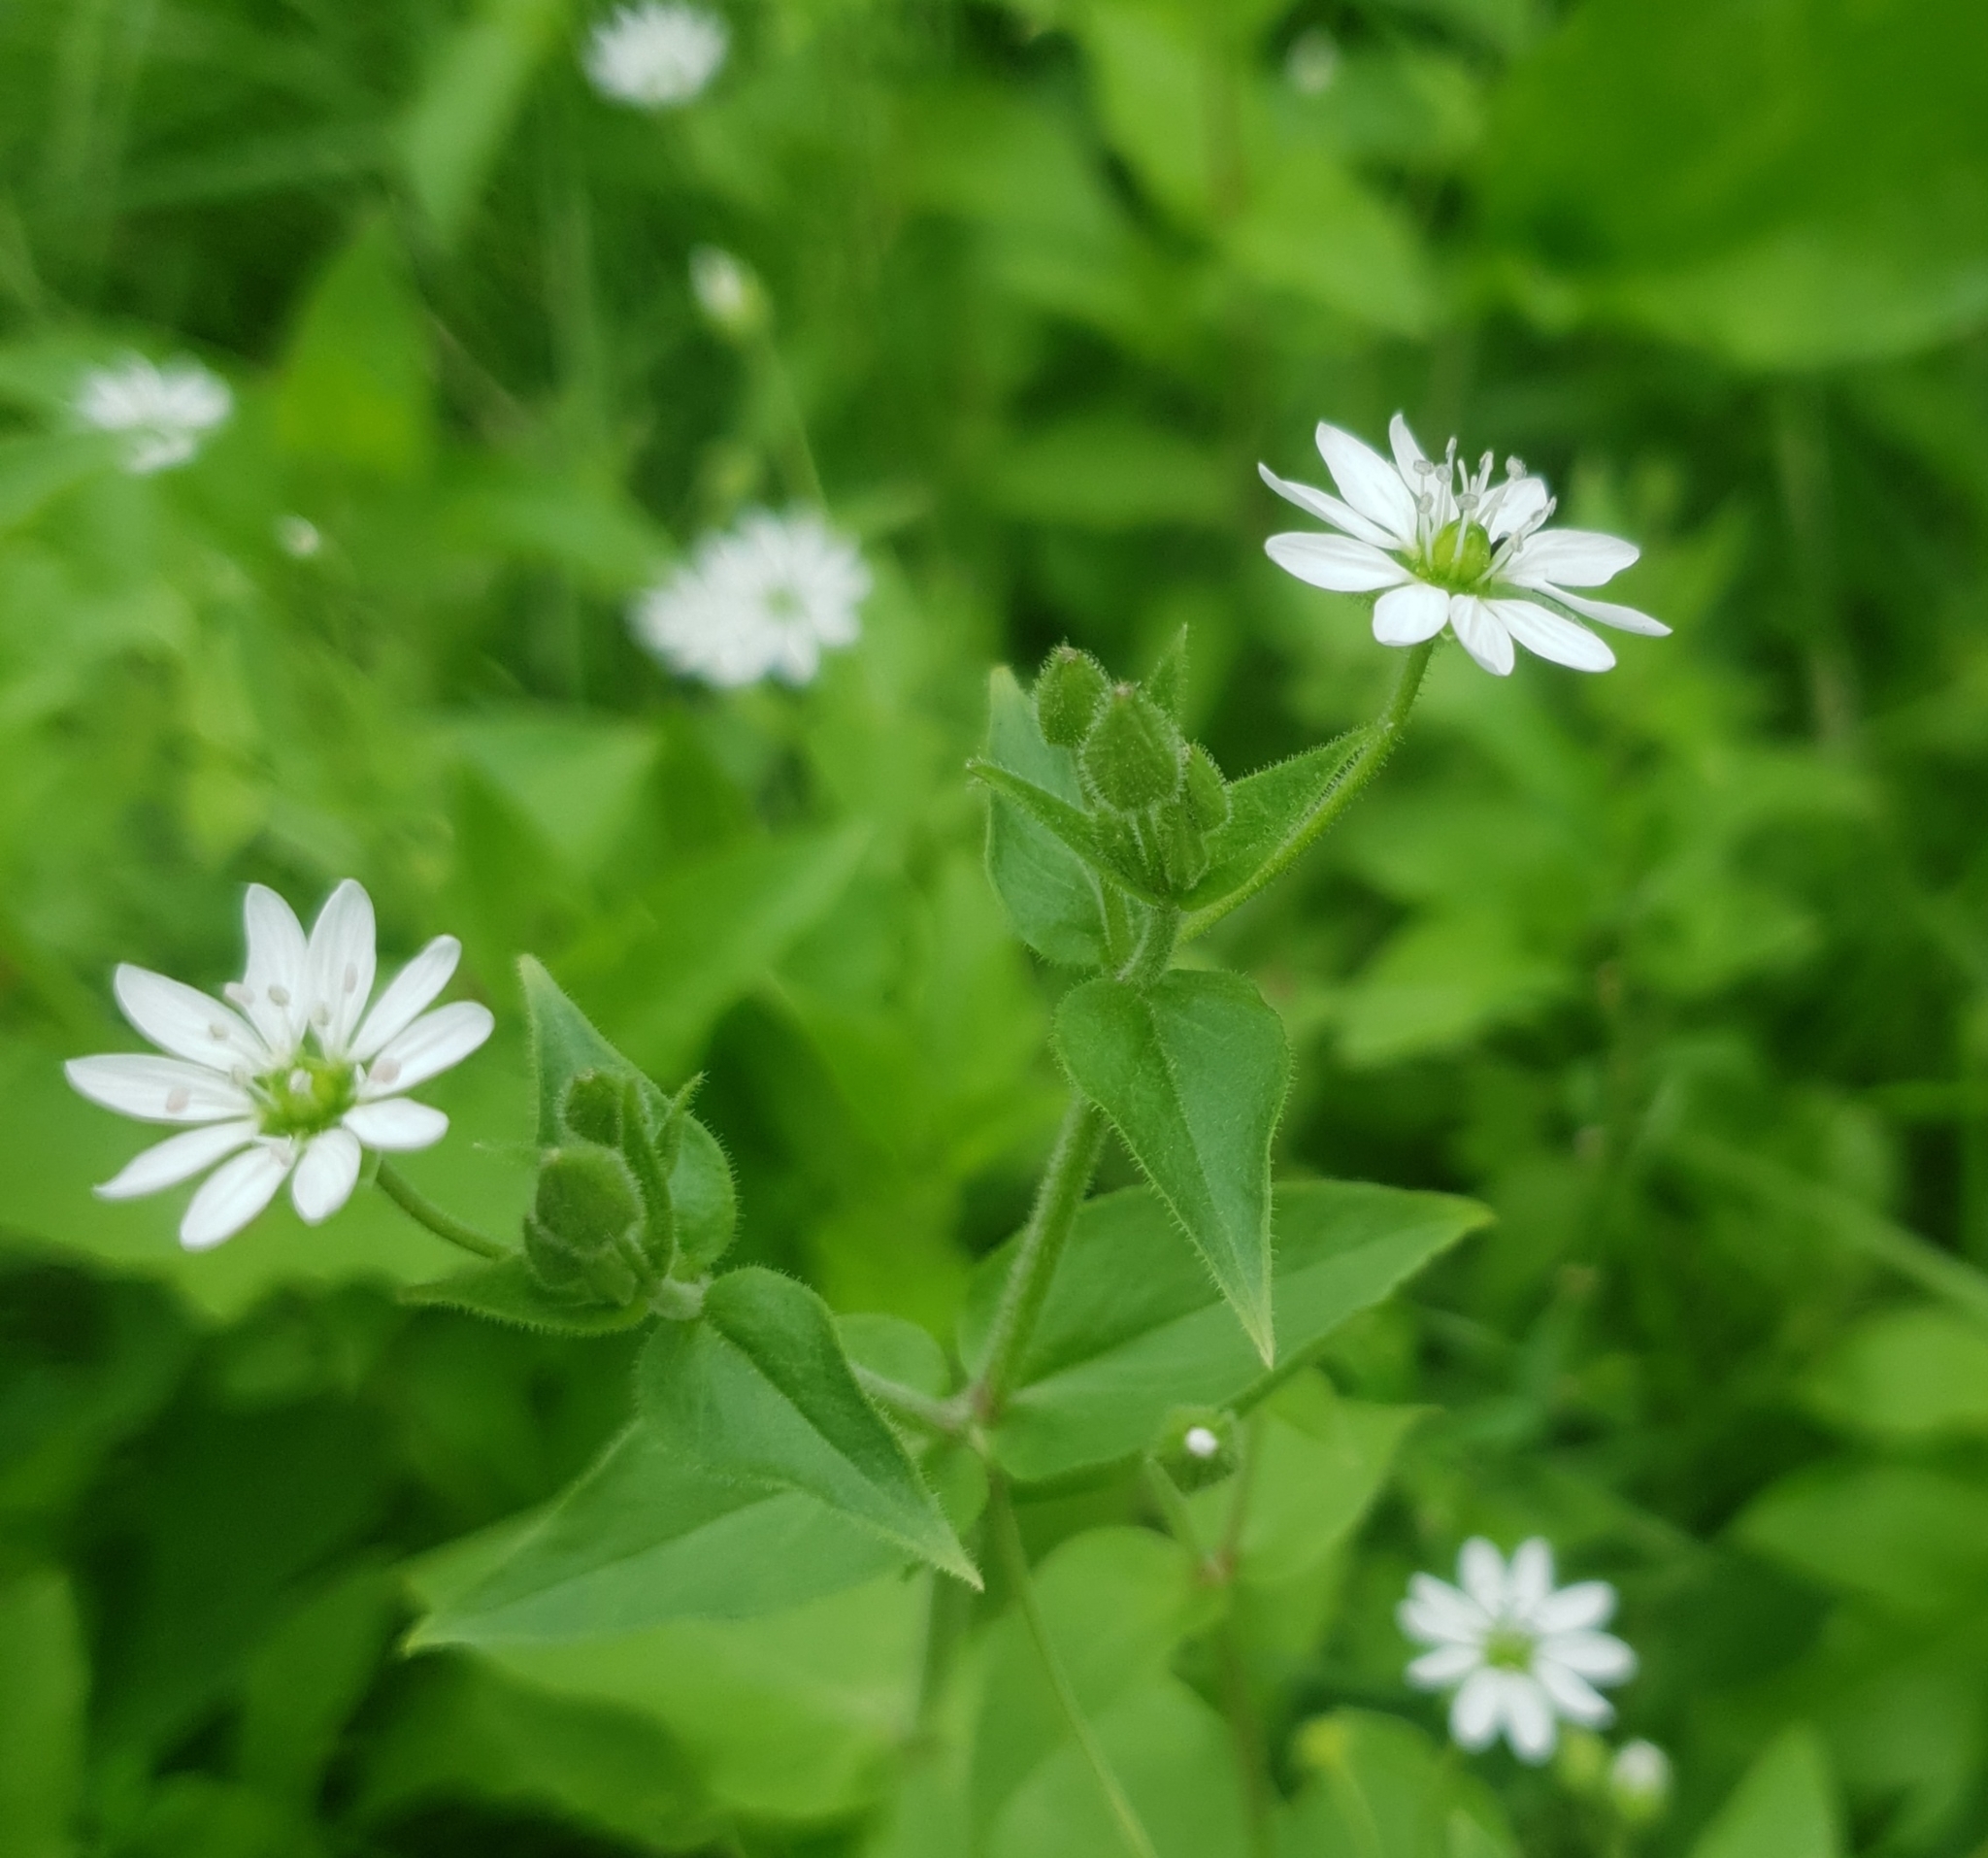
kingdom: Plantae
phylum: Tracheophyta
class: Magnoliopsida
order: Caryophyllales
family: Caryophyllaceae
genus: Stellaria
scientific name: Stellaria aquatica
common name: Water chickweed
